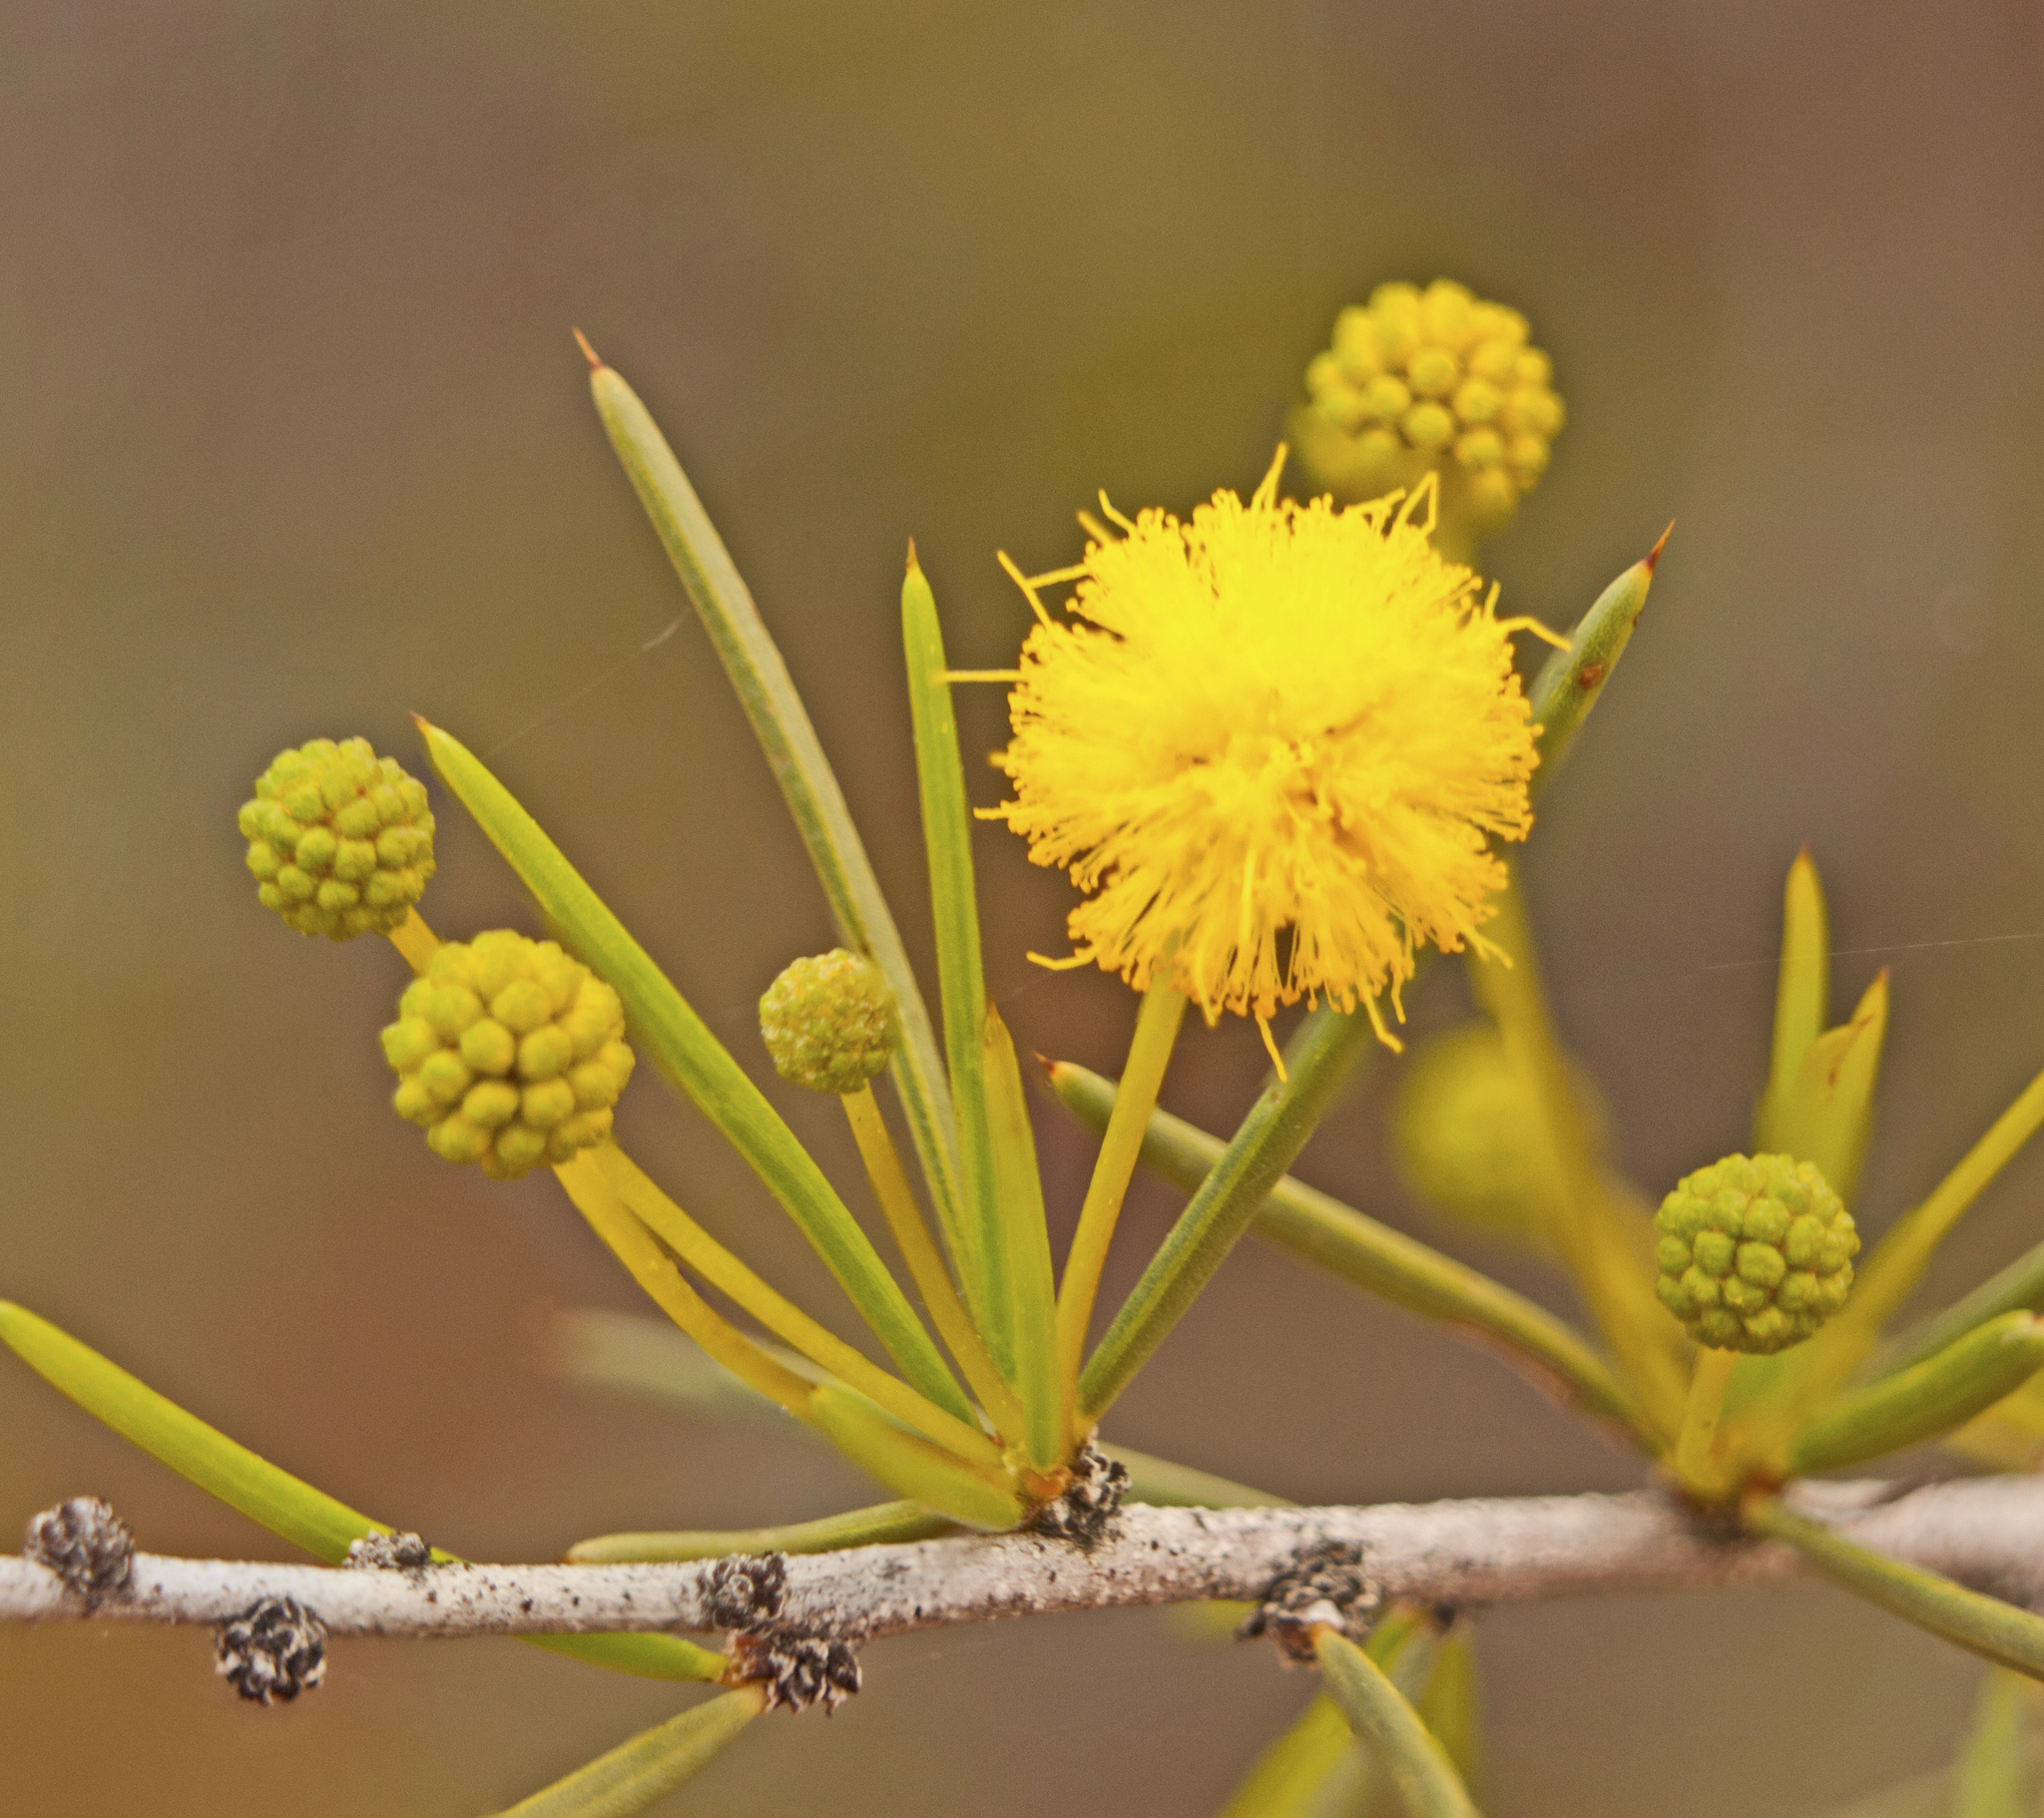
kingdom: Plantae
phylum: Tracheophyta
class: Magnoliopsida
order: Fabales
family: Fabaceae
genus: Acacia
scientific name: Acacia tetragonophylla
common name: Dead finish
